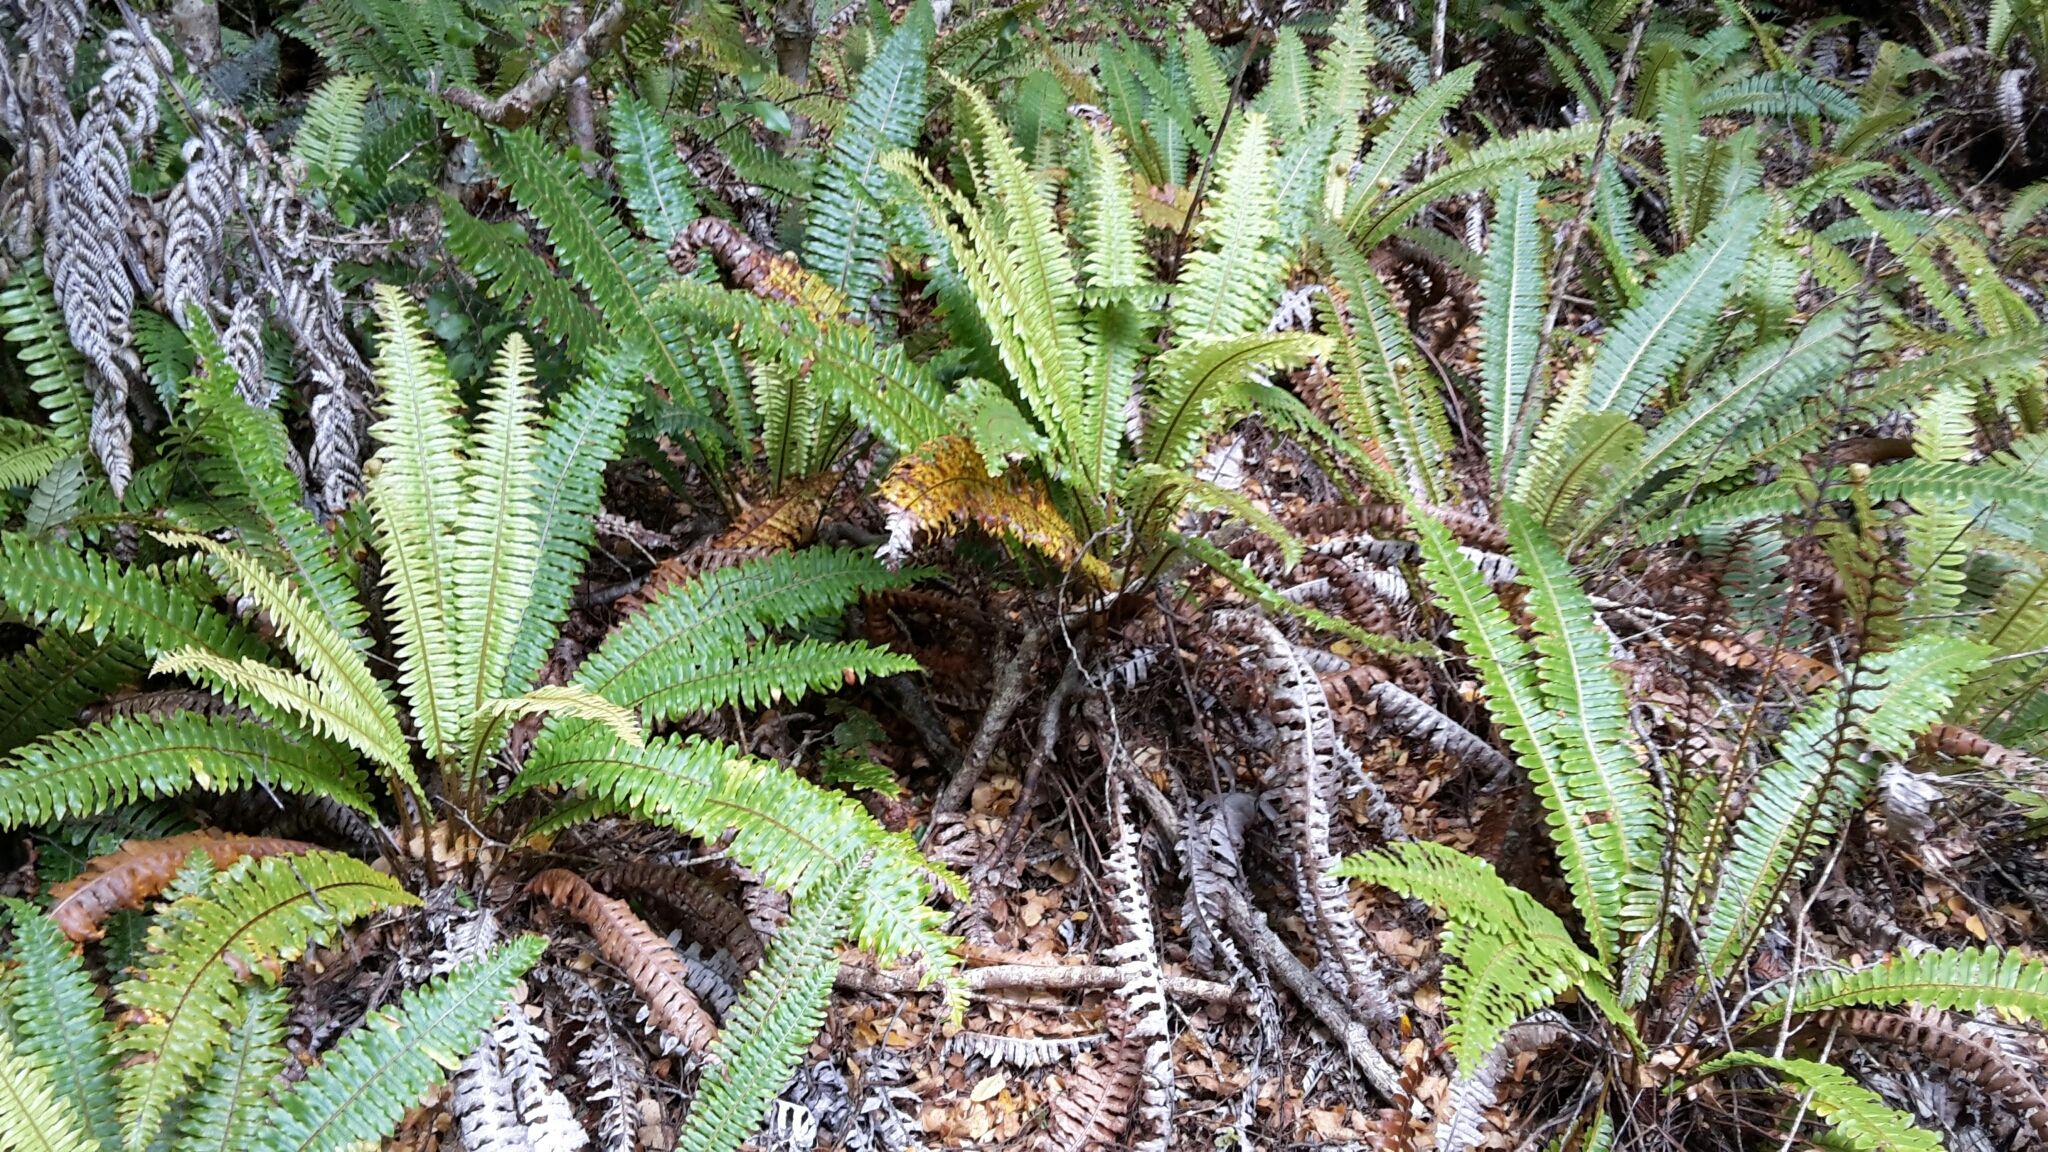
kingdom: Plantae
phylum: Tracheophyta
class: Polypodiopsida
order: Polypodiales
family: Blechnaceae
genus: Lomaria
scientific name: Lomaria discolor
